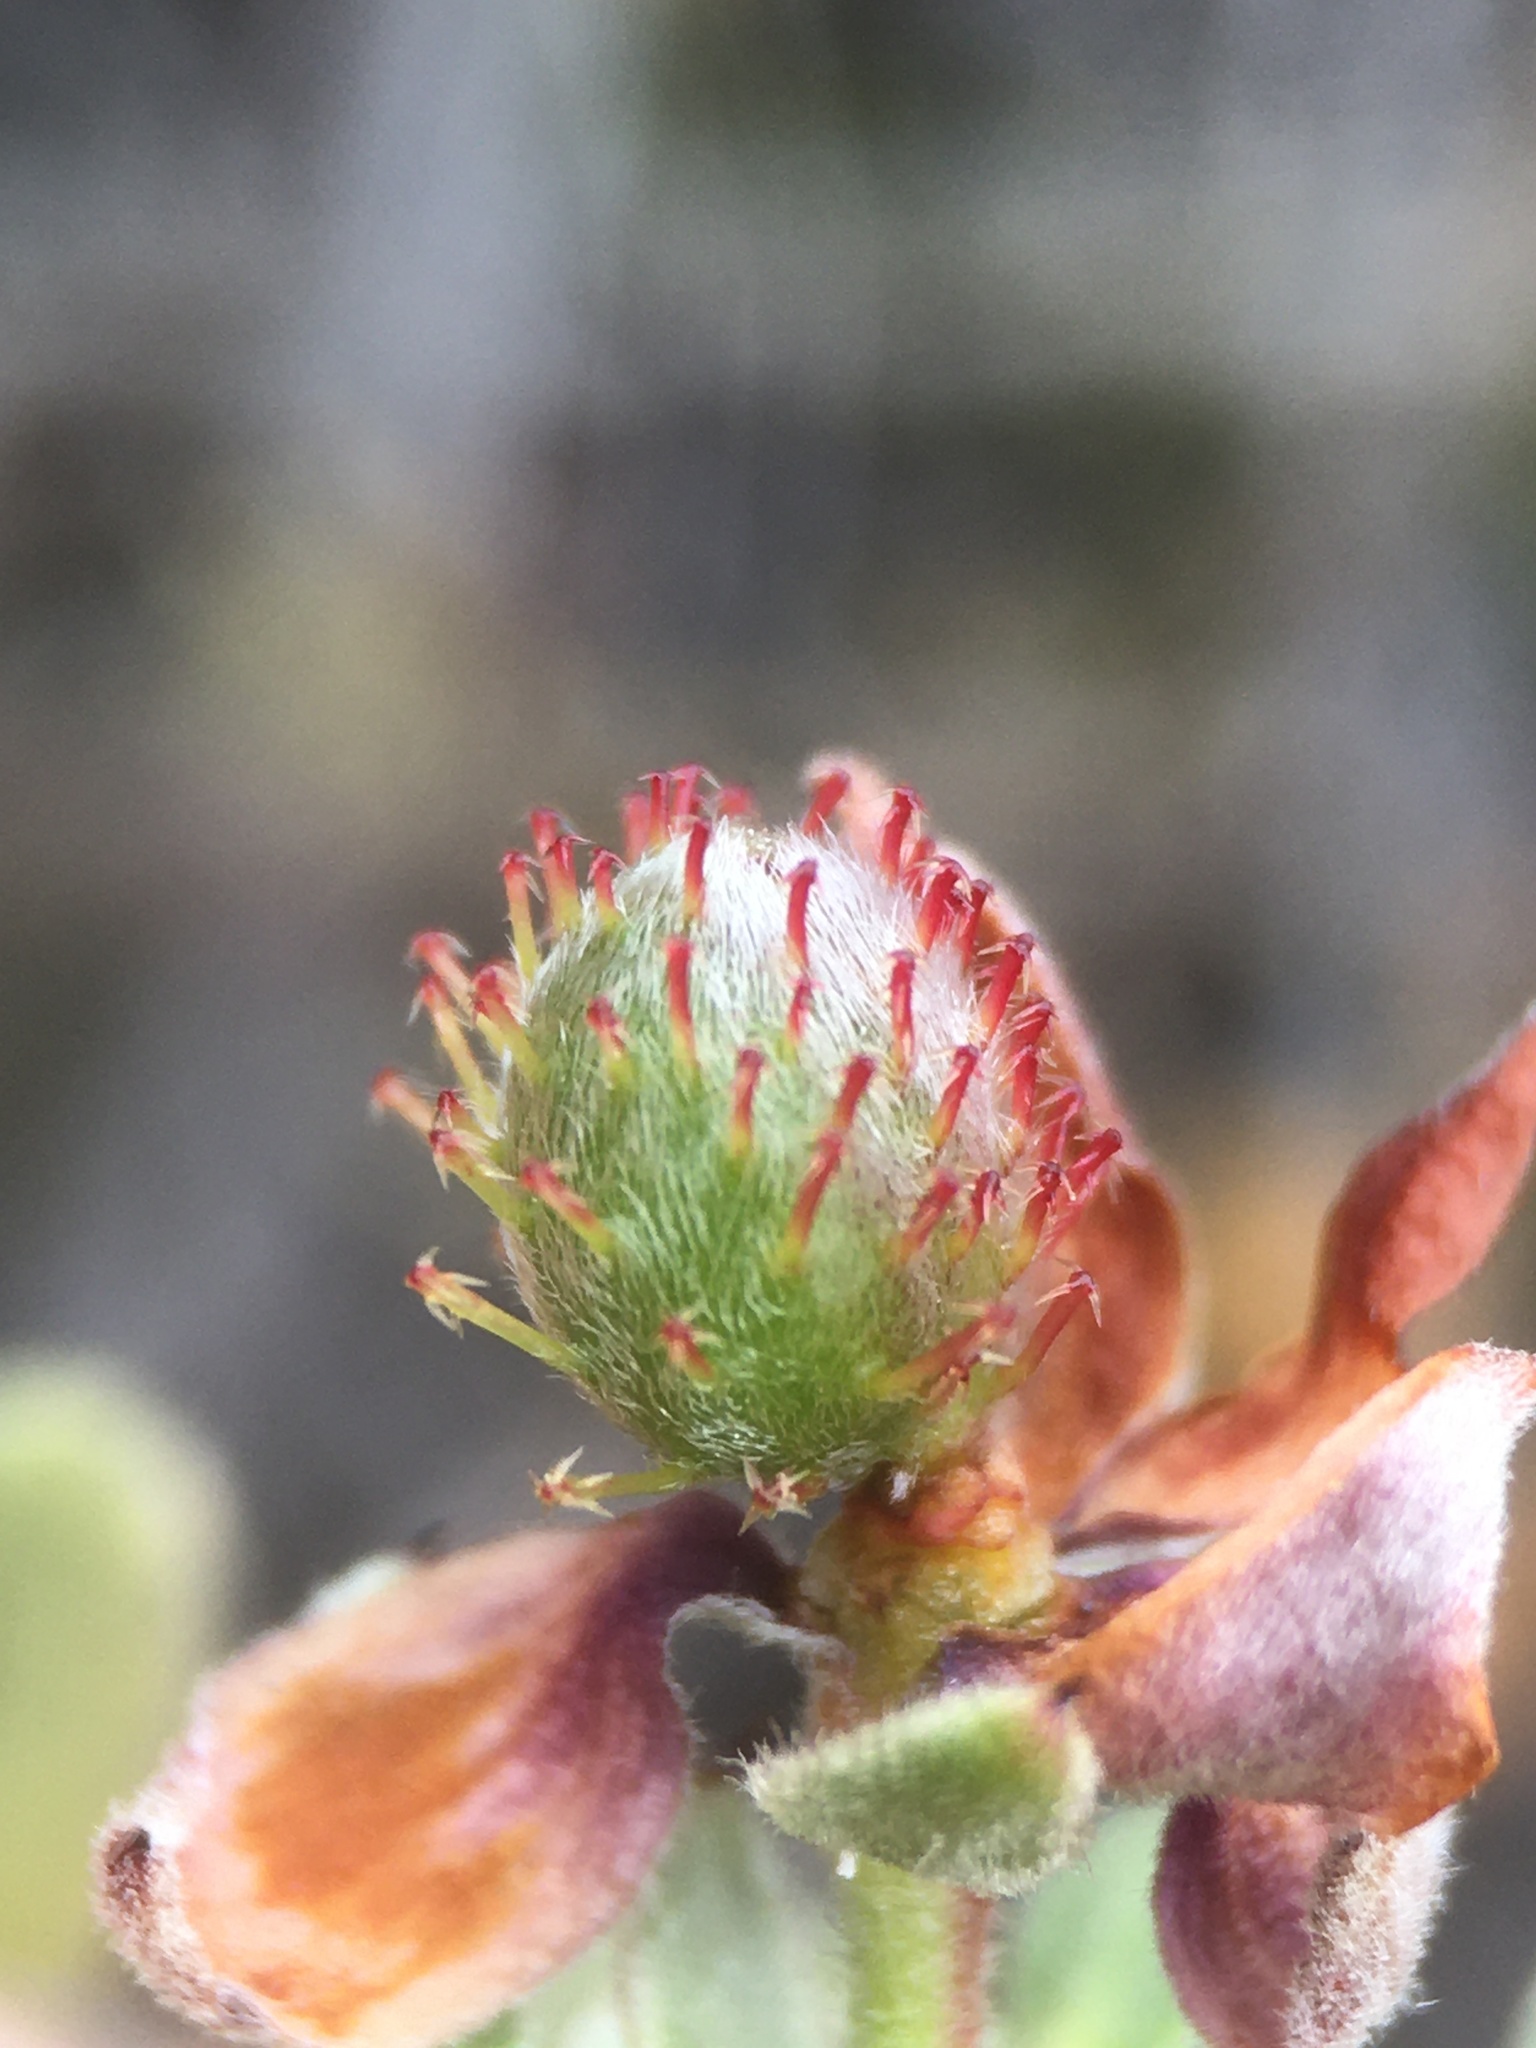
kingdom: Plantae
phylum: Tracheophyta
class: Magnoliopsida
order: Zygophyllales
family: Krameriaceae
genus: Krameria
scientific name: Krameria cistoidea
